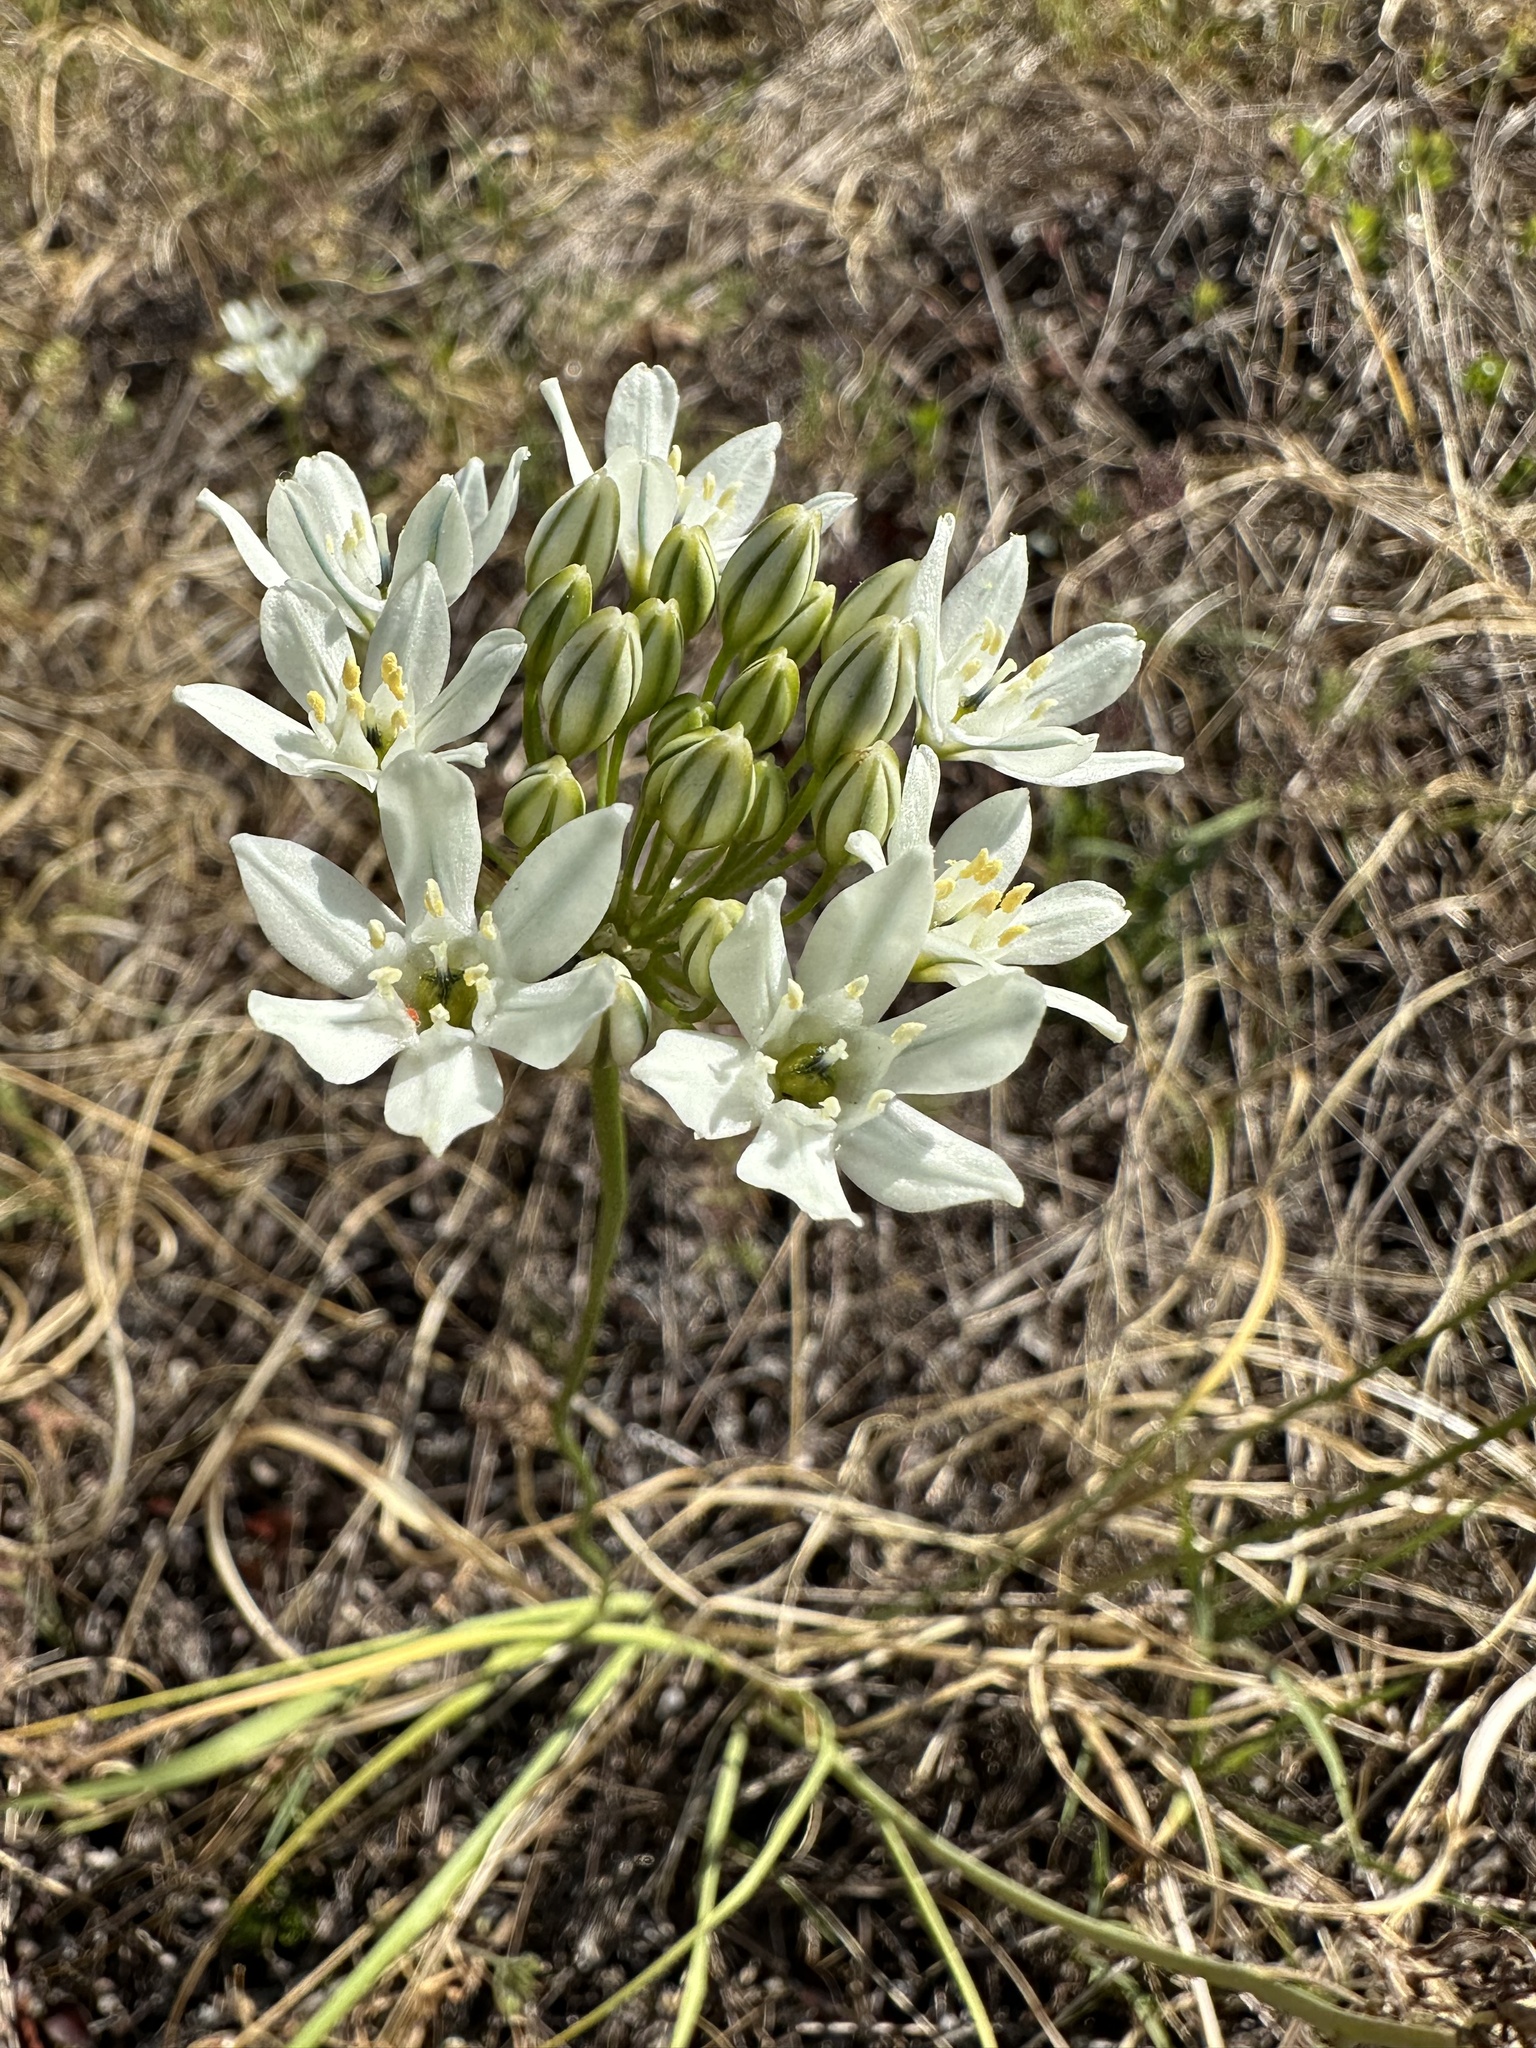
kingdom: Plantae
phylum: Tracheophyta
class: Liliopsida
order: Asparagales
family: Asparagaceae
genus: Triteleia
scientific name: Triteleia hyacinthina
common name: White brodiaea
